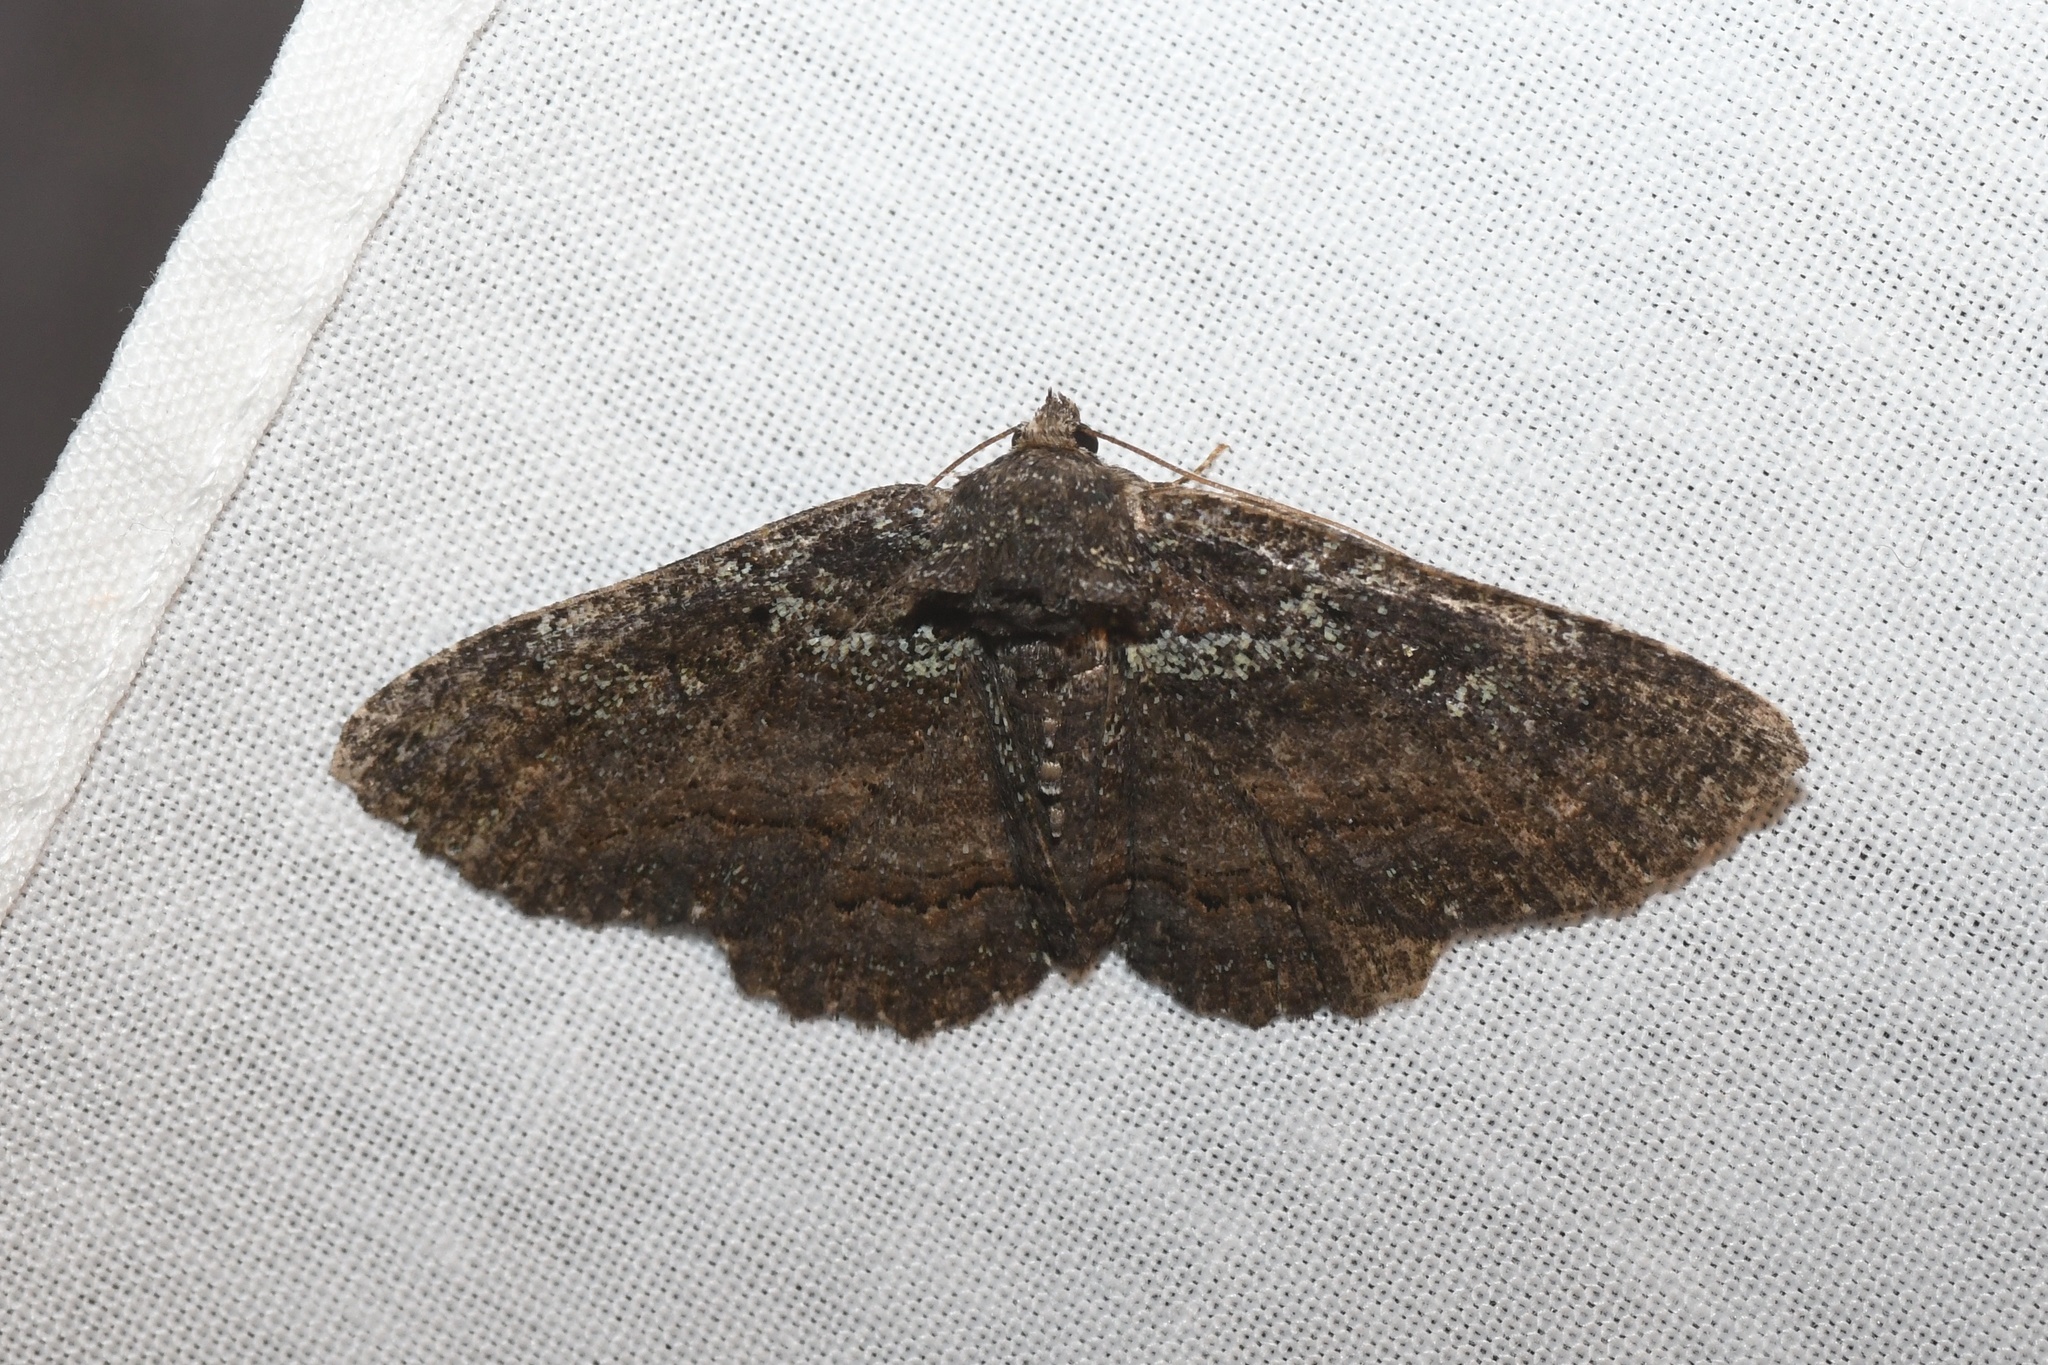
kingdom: Animalia
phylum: Arthropoda
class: Insecta
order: Lepidoptera
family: Erebidae
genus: Zale
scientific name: Zale aeruginosa
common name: Green-dusted zale moth
